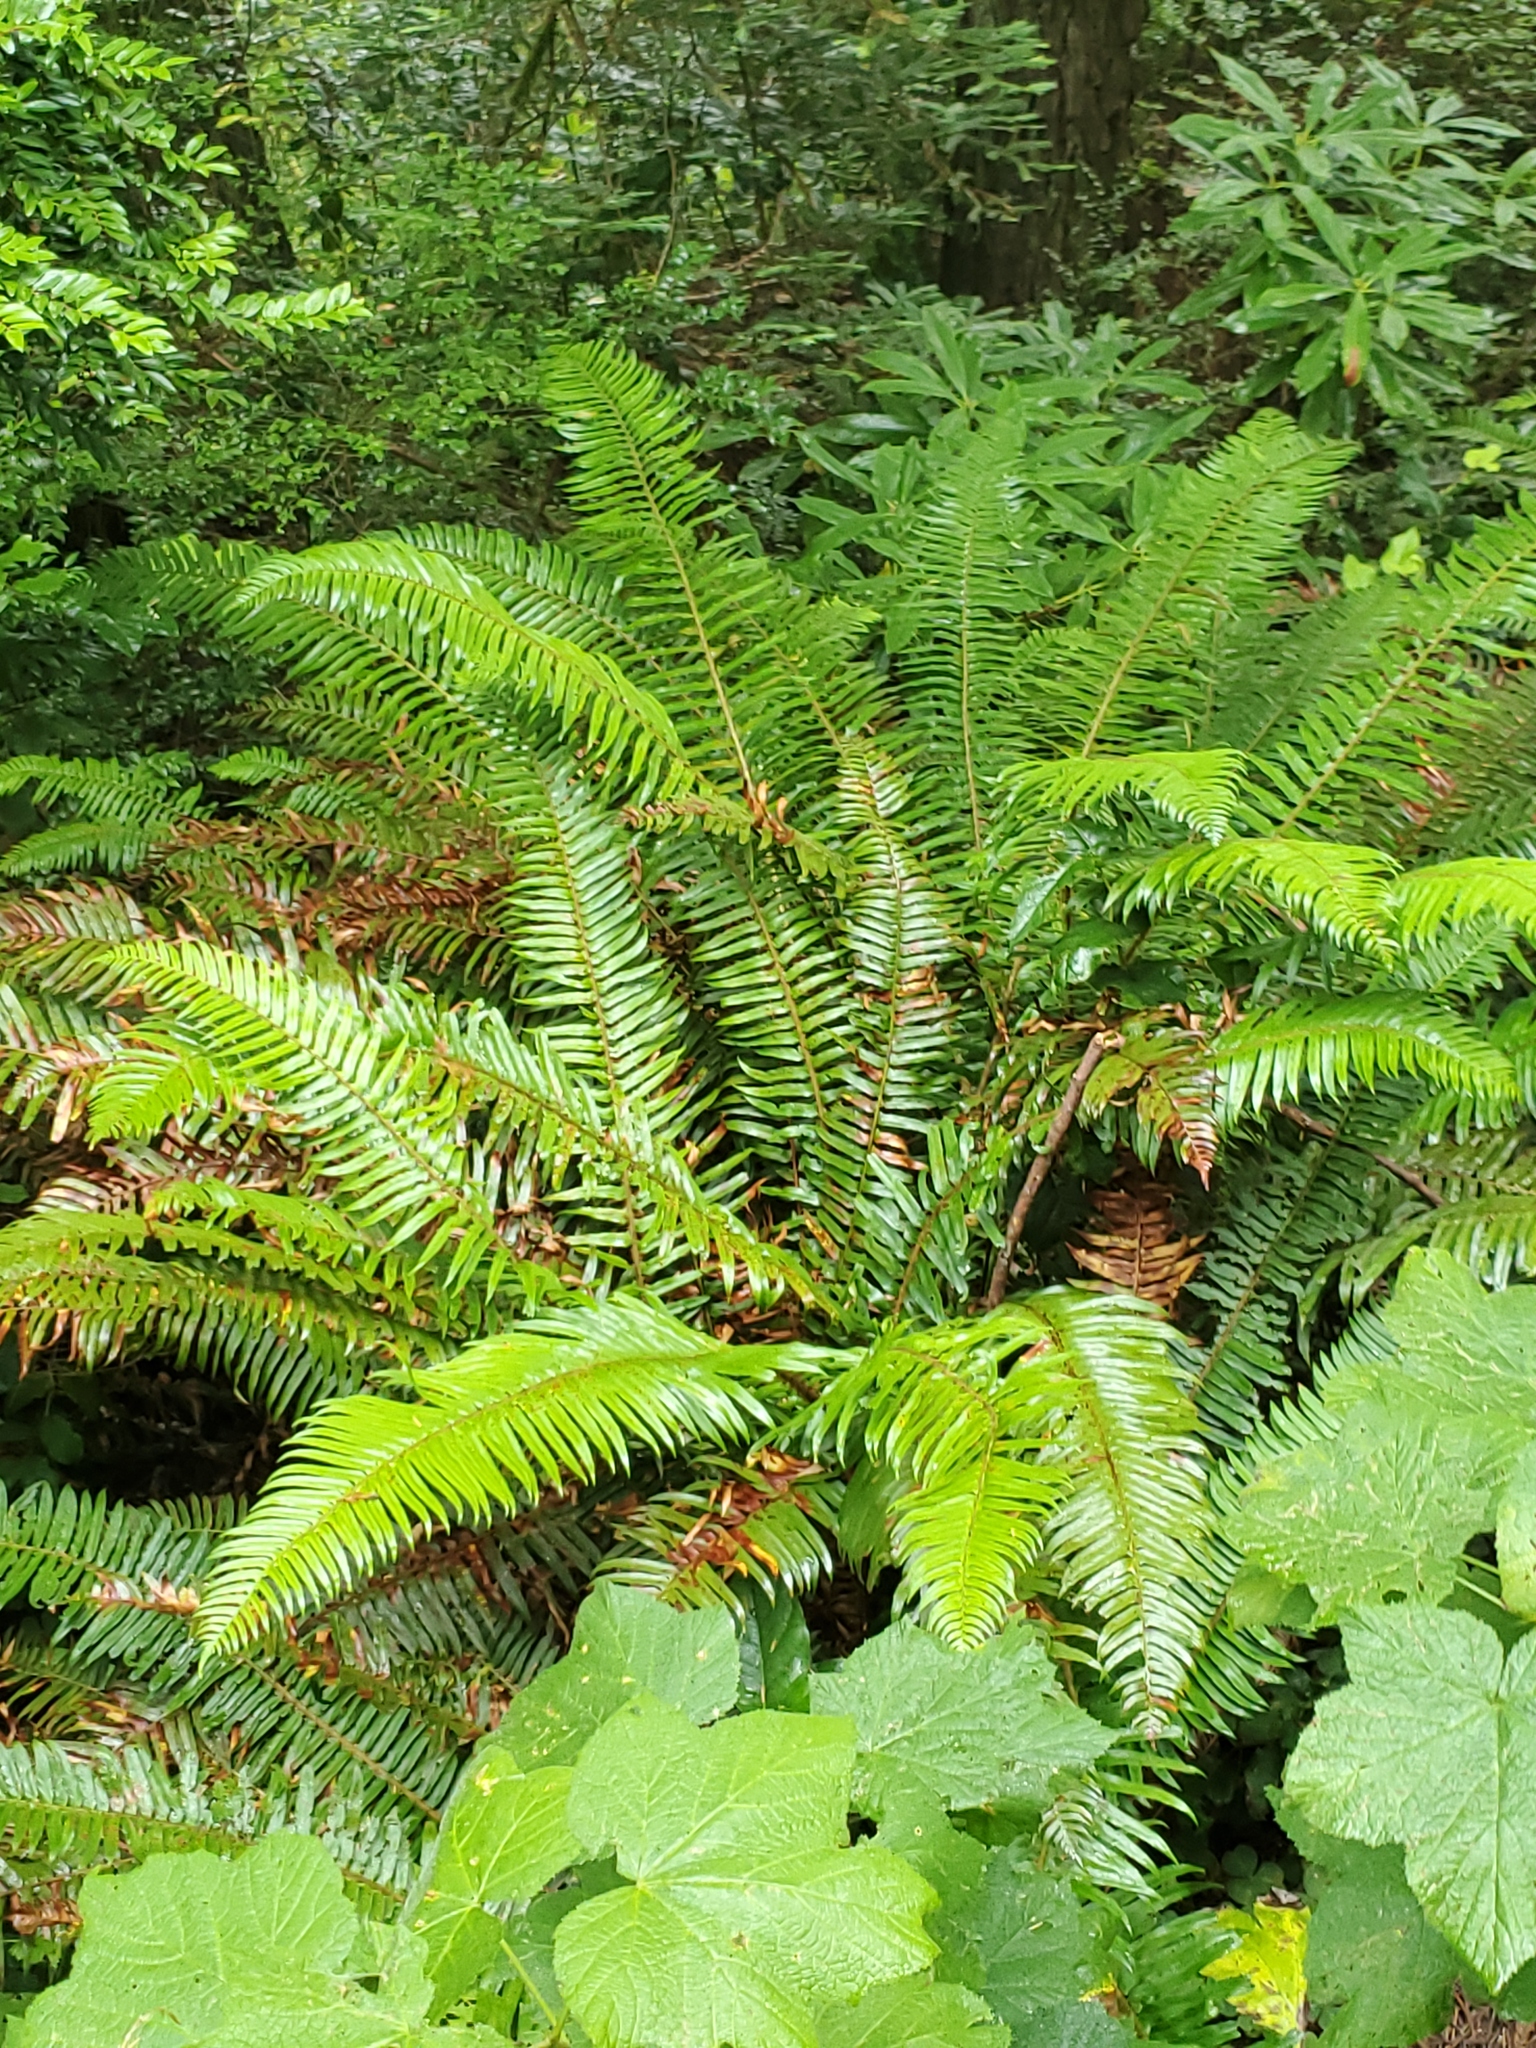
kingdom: Plantae
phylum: Tracheophyta
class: Polypodiopsida
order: Polypodiales
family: Dryopteridaceae
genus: Polystichum
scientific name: Polystichum munitum
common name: Western sword-fern
